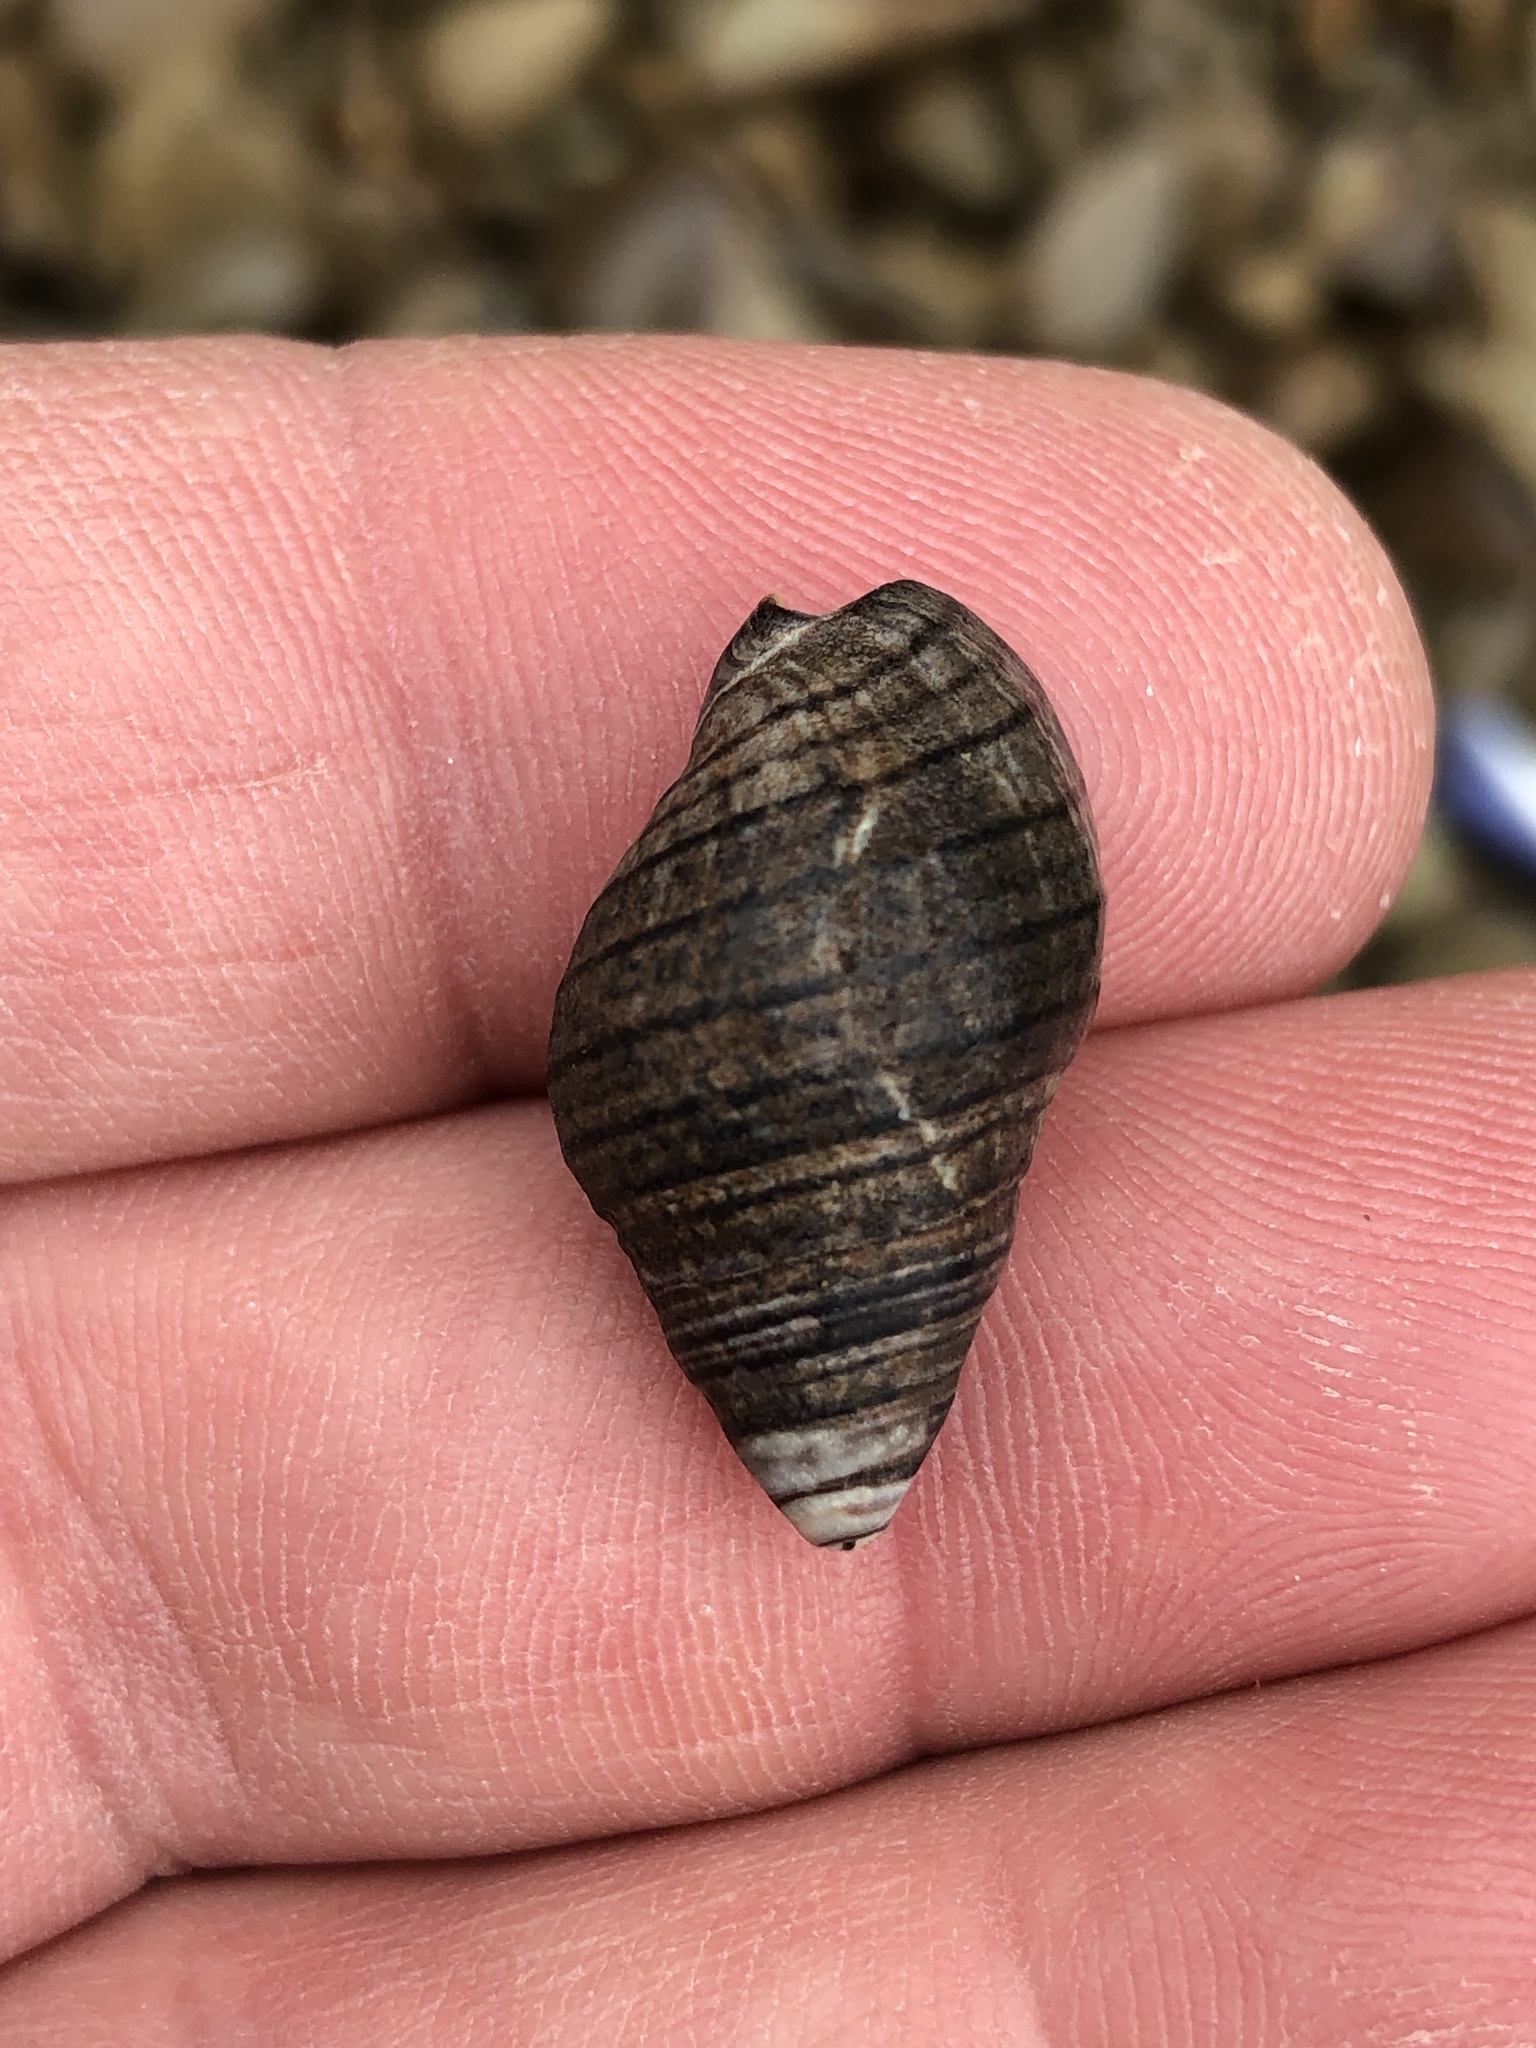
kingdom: Animalia
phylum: Mollusca
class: Gastropoda
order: Neogastropoda
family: Cominellidae
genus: Cominella
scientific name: Cominella virgata
